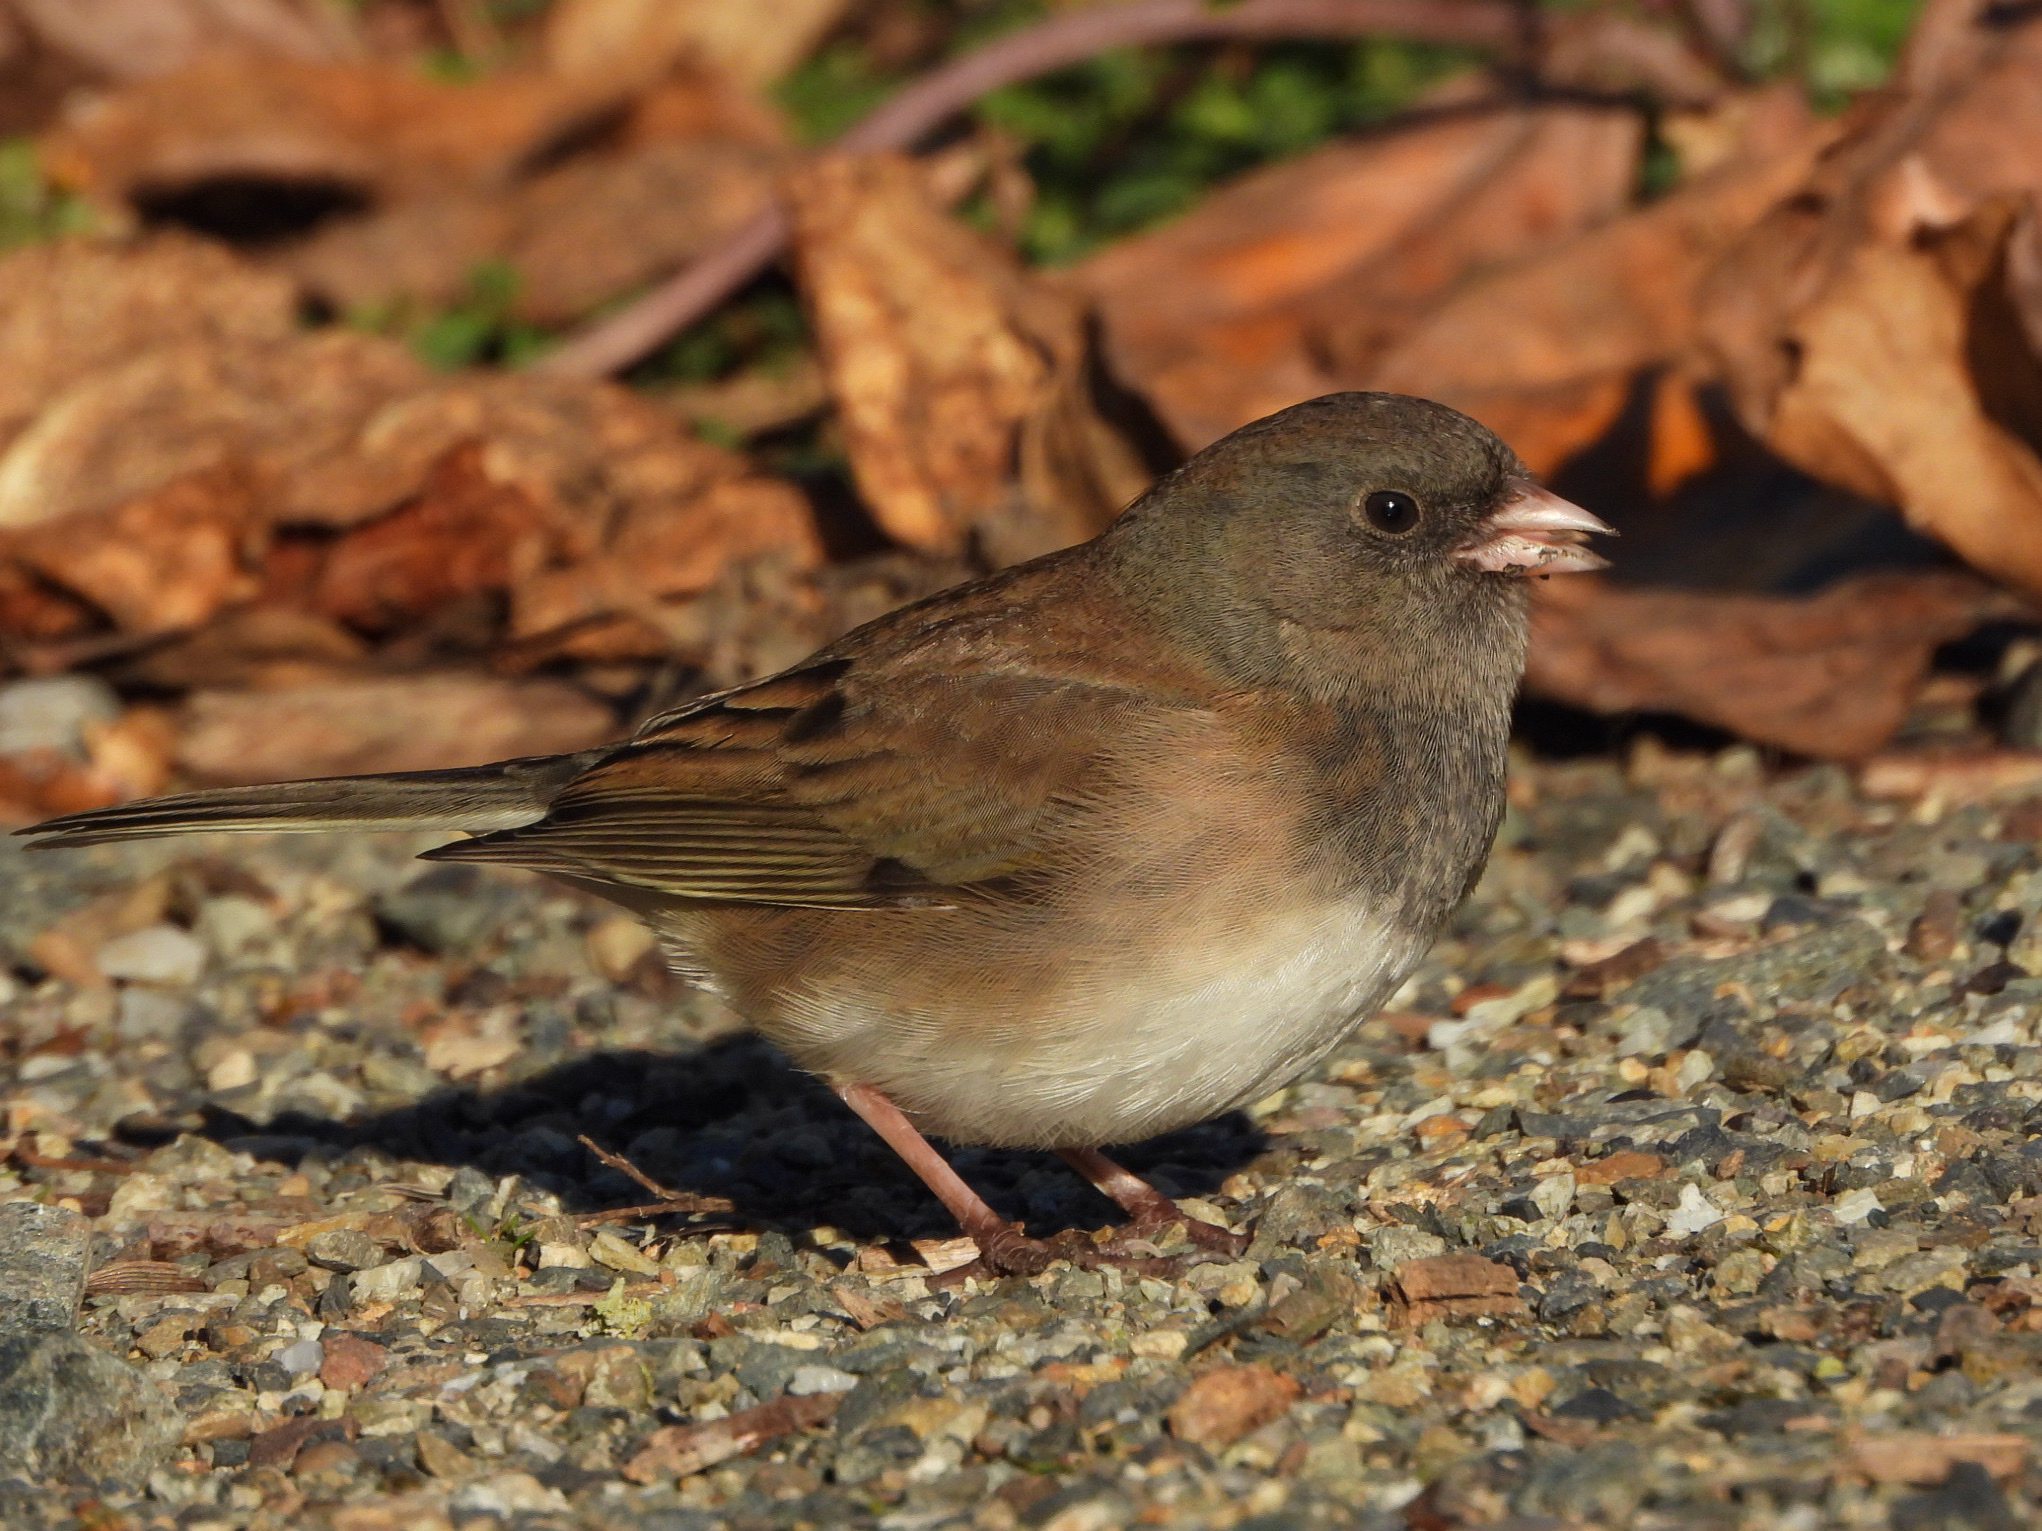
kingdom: Animalia
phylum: Chordata
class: Aves
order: Passeriformes
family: Passerellidae
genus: Junco
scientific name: Junco hyemalis
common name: Dark-eyed junco
